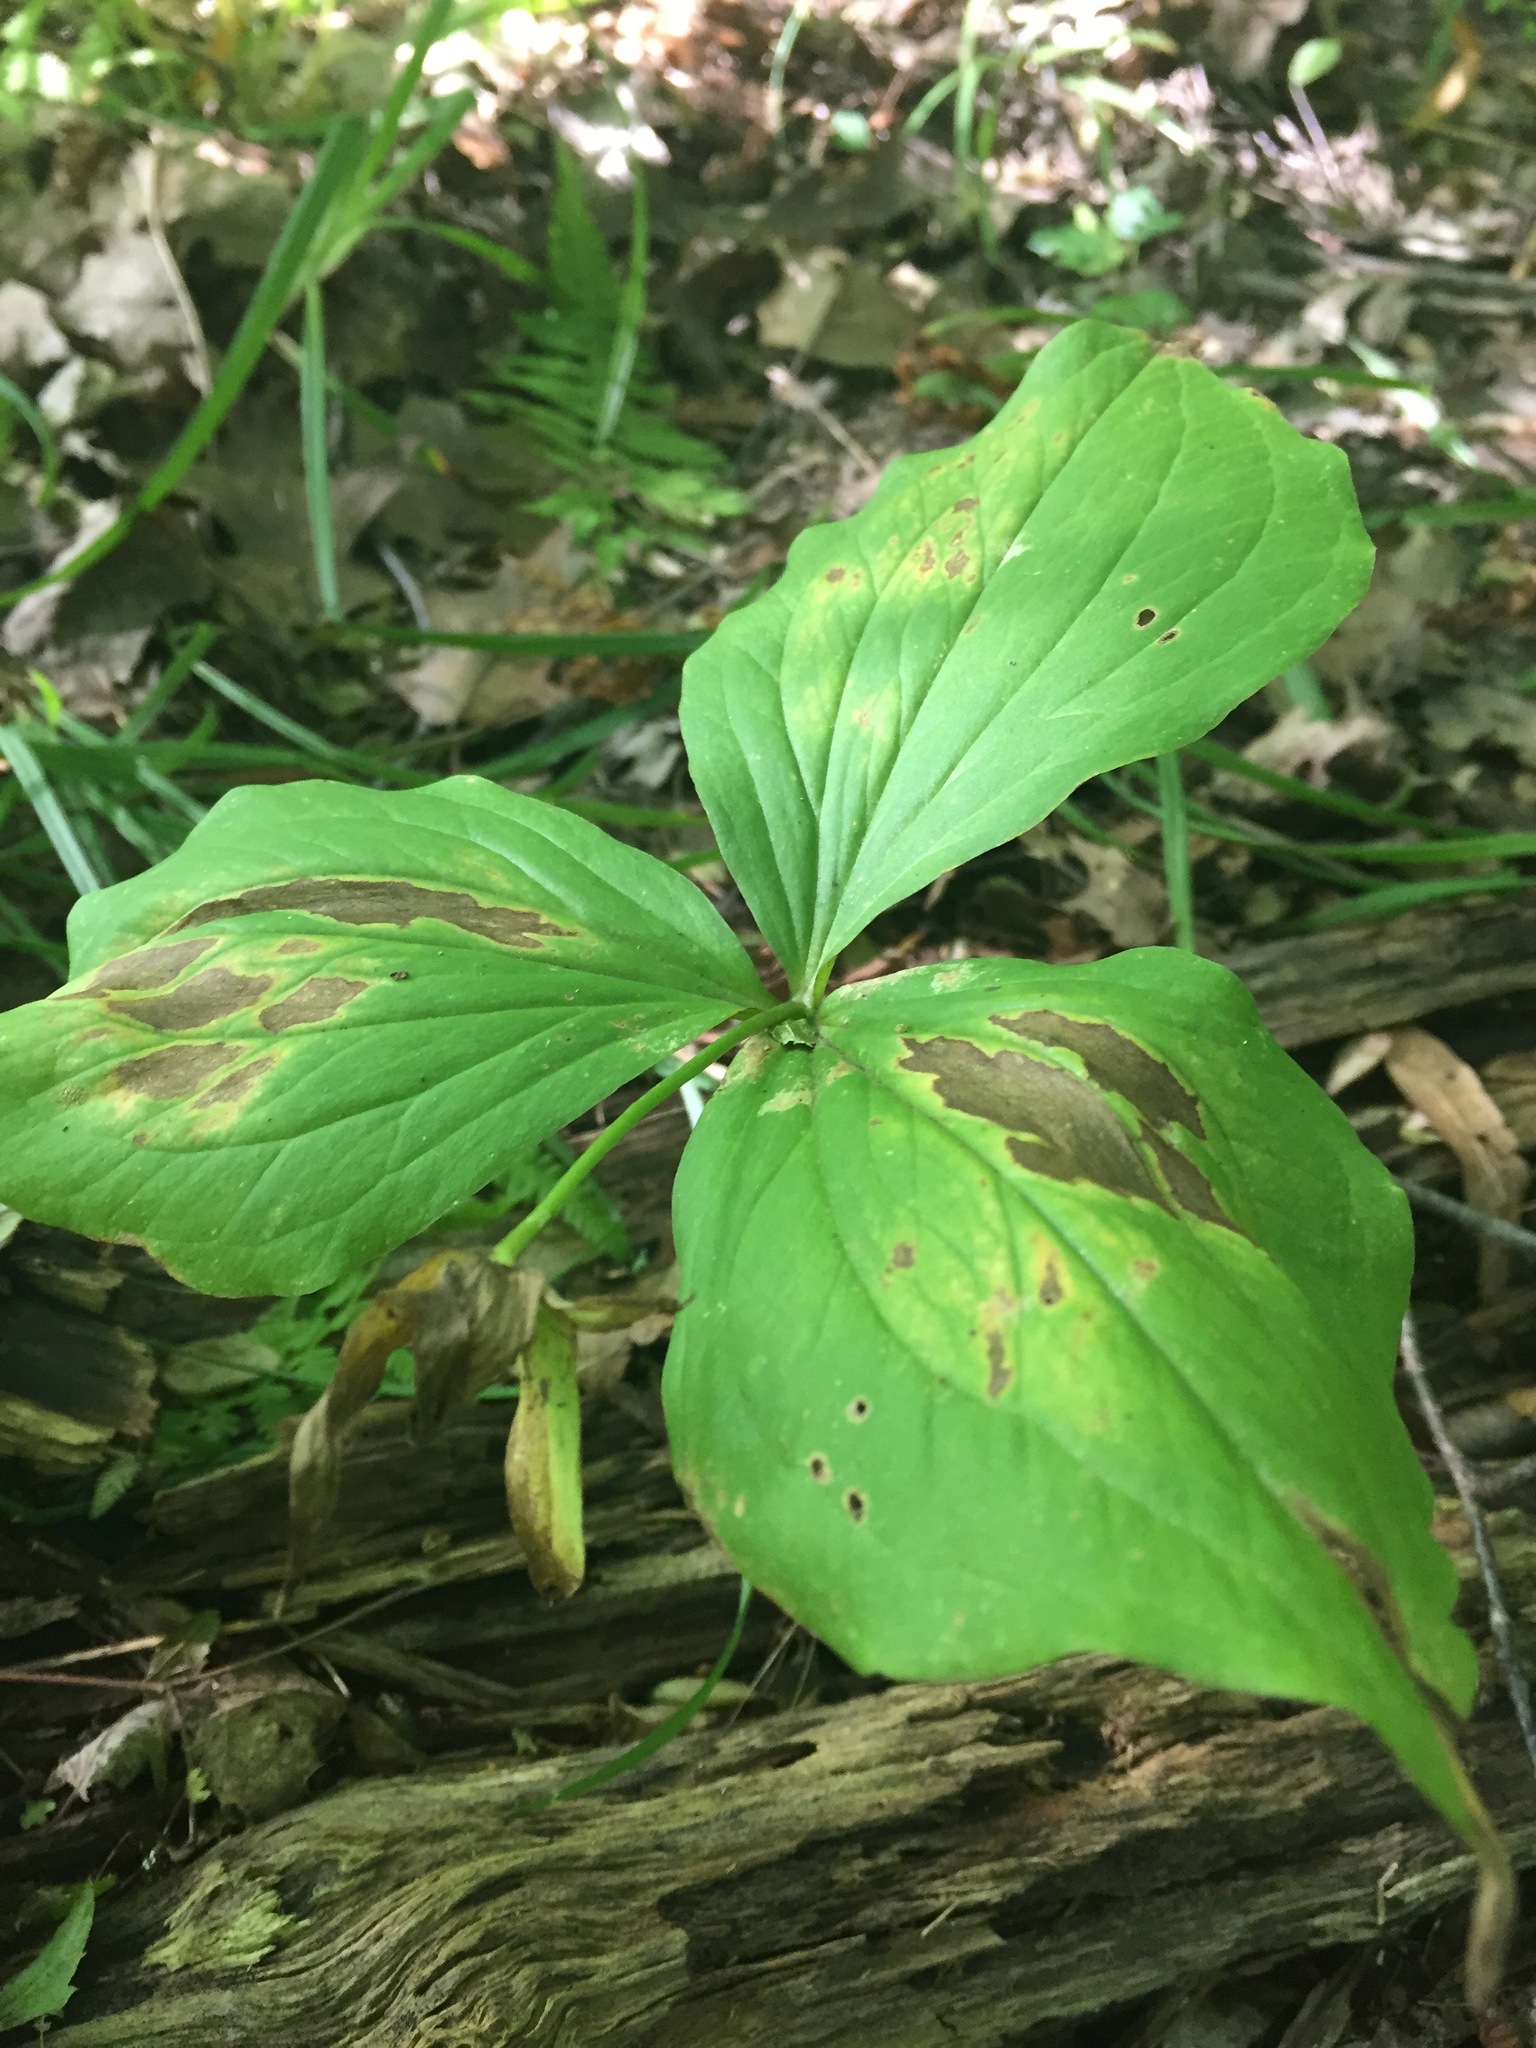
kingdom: Plantae
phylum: Tracheophyta
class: Liliopsida
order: Liliales
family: Melanthiaceae
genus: Trillium
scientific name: Trillium grandiflorum
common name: Great white trillium
